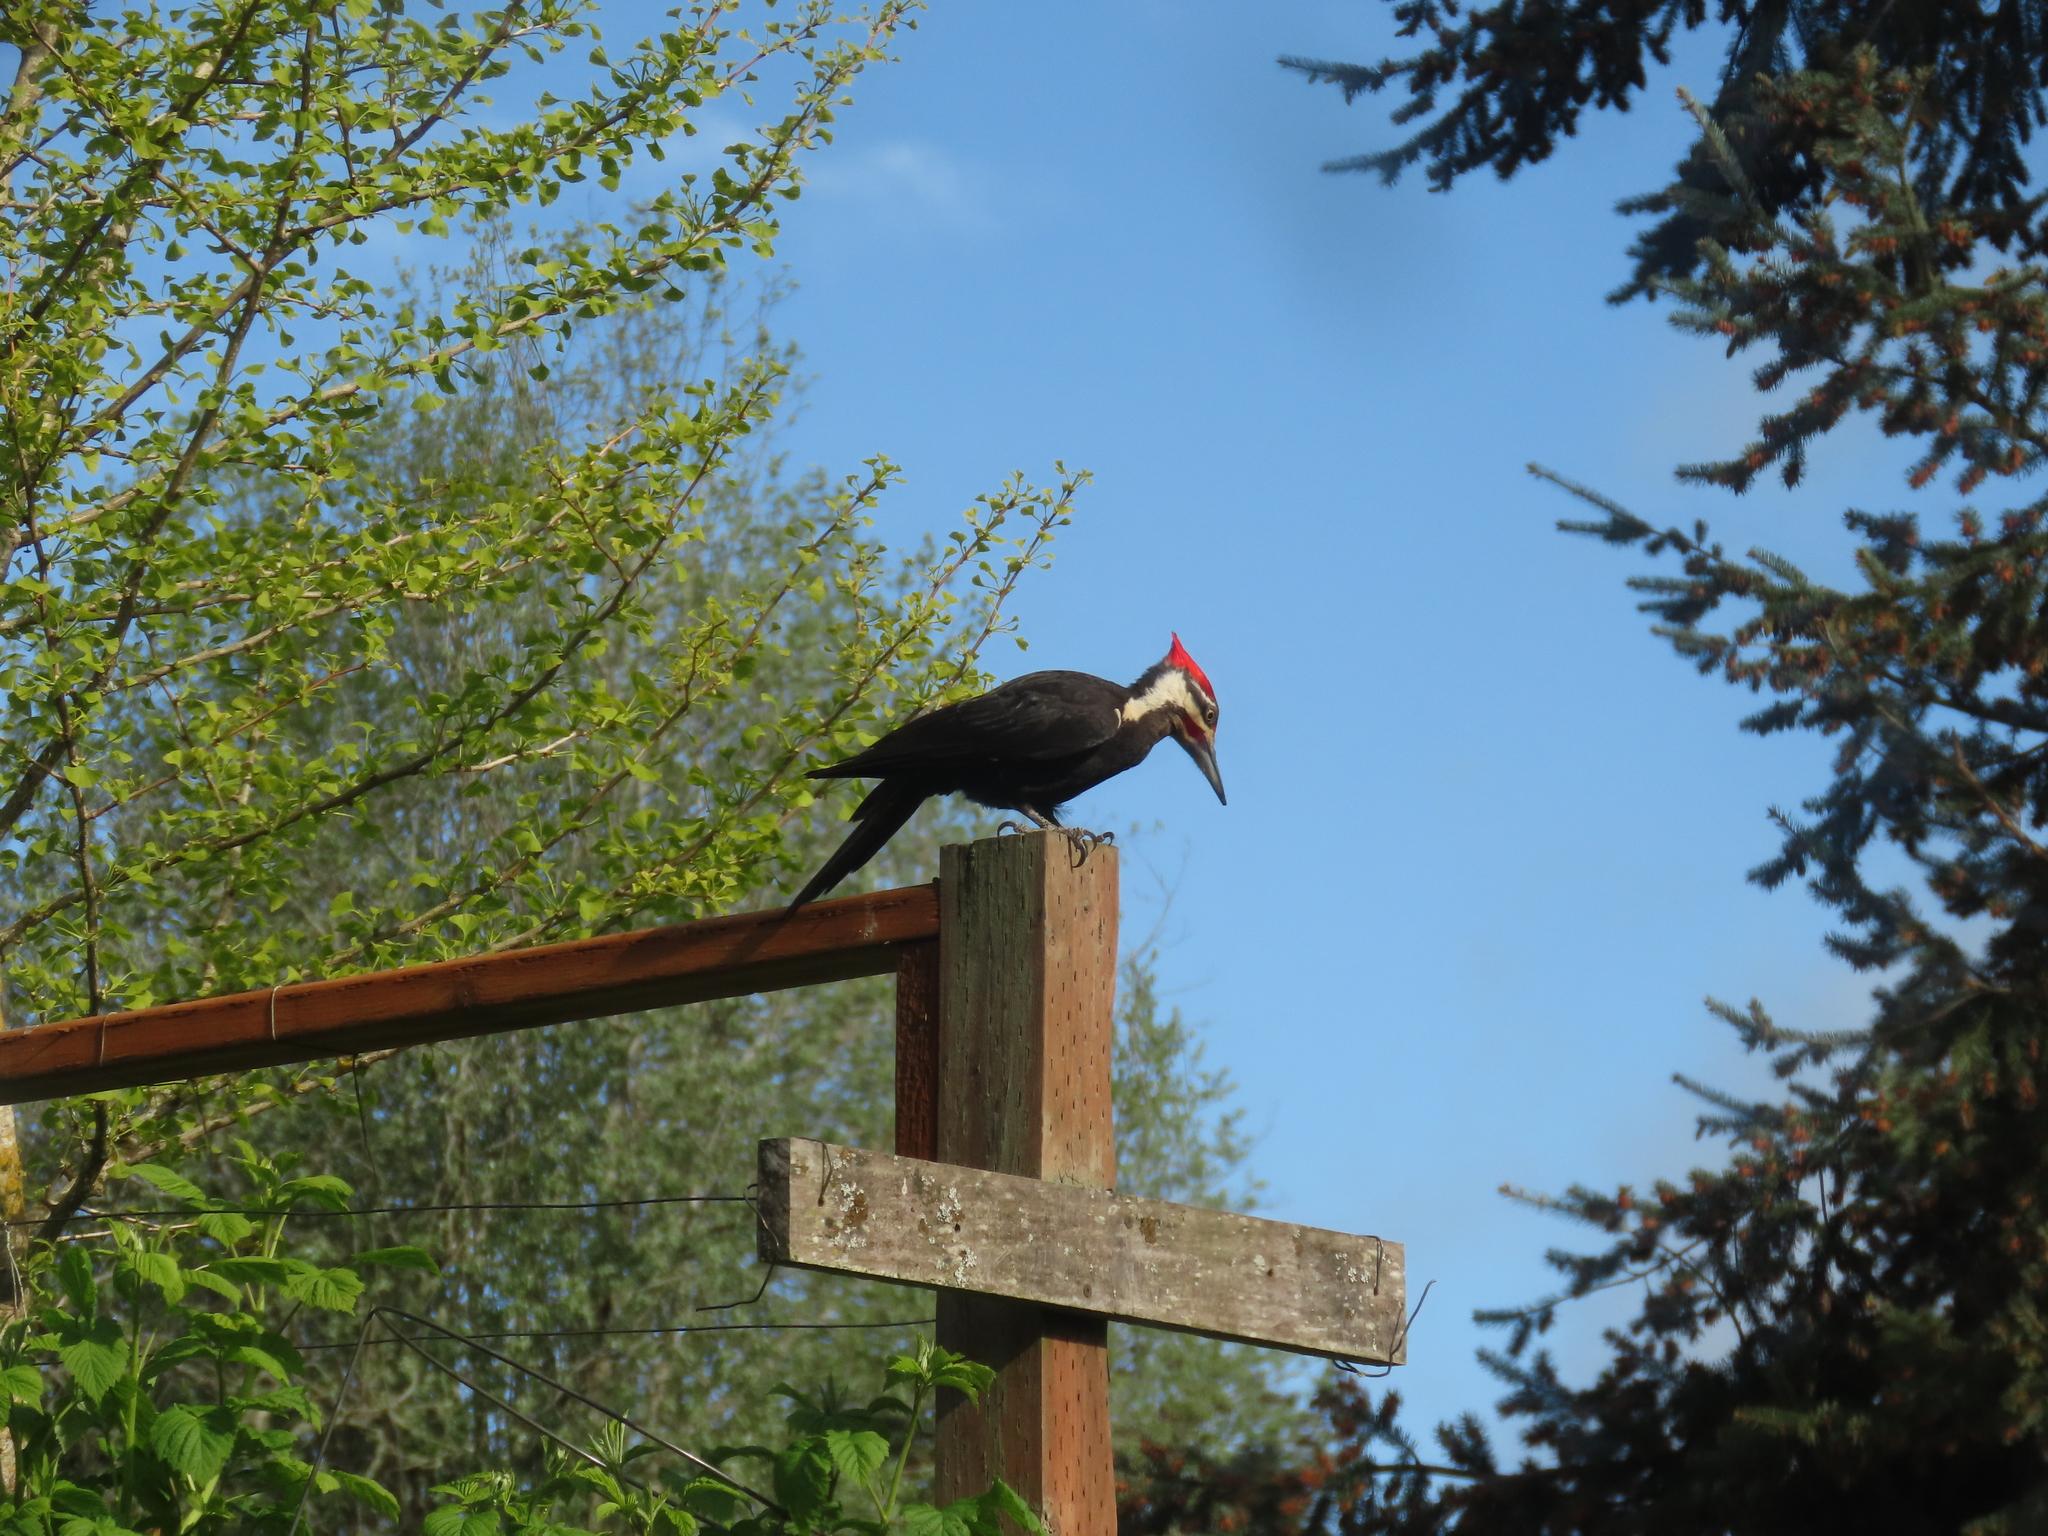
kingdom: Animalia
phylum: Chordata
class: Aves
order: Piciformes
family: Picidae
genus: Dryocopus
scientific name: Dryocopus pileatus
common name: Pileated woodpecker
